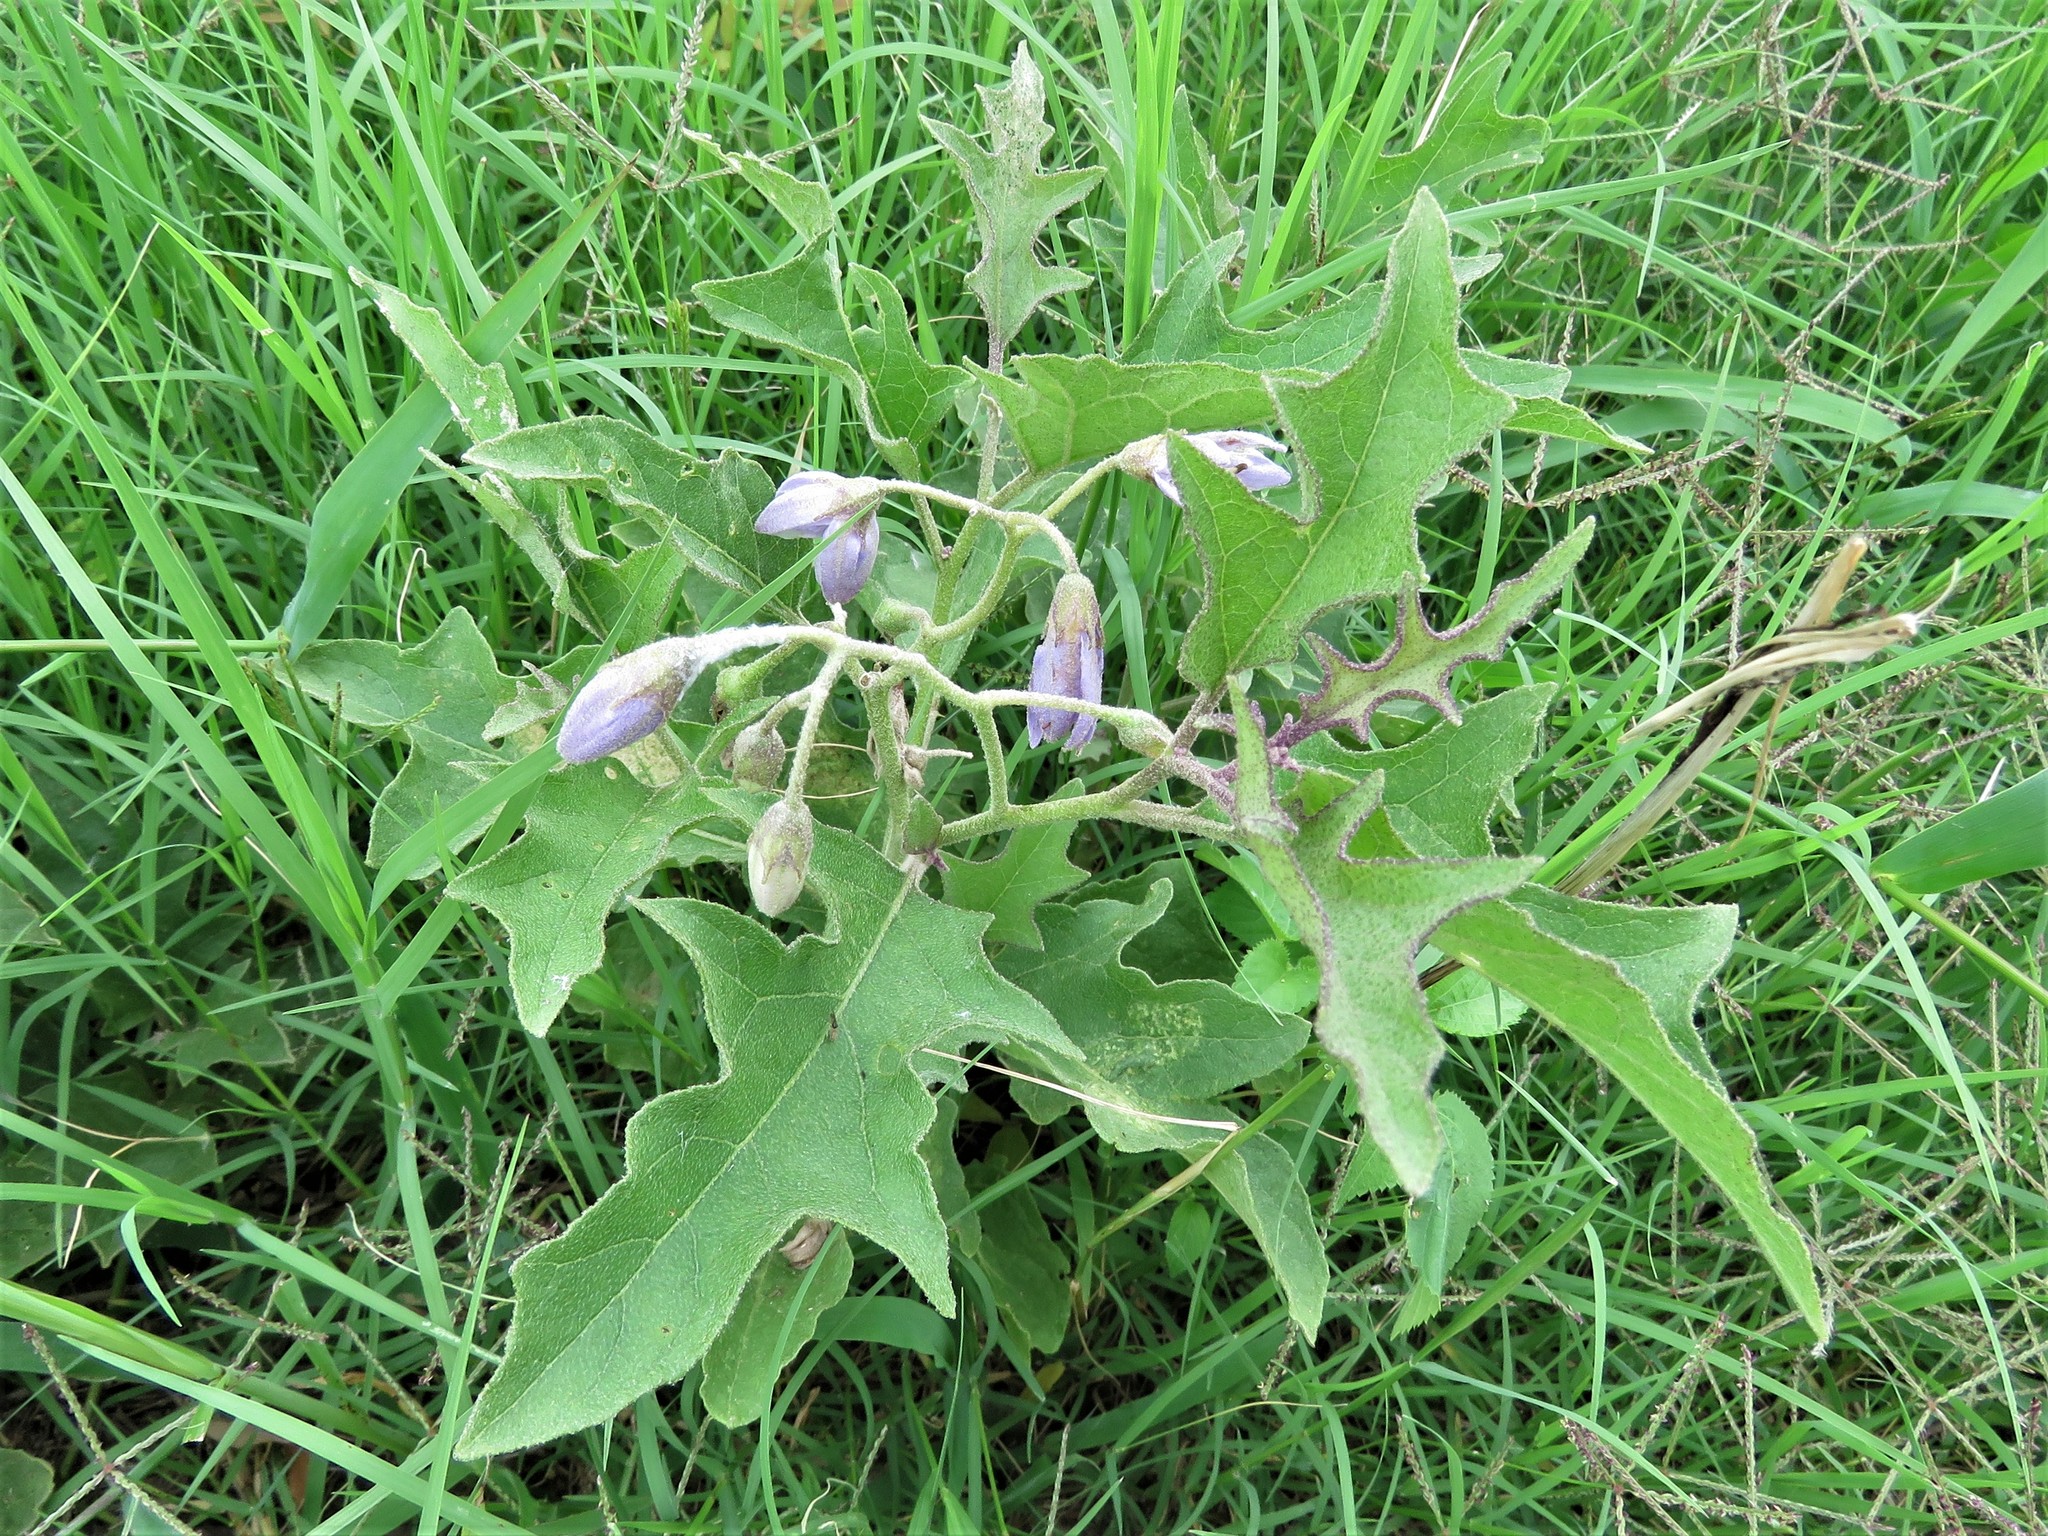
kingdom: Plantae
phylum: Tracheophyta
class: Magnoliopsida
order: Solanales
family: Solanaceae
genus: Solanum
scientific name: Solanum dimidiatum
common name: Carolina horse-nettle
